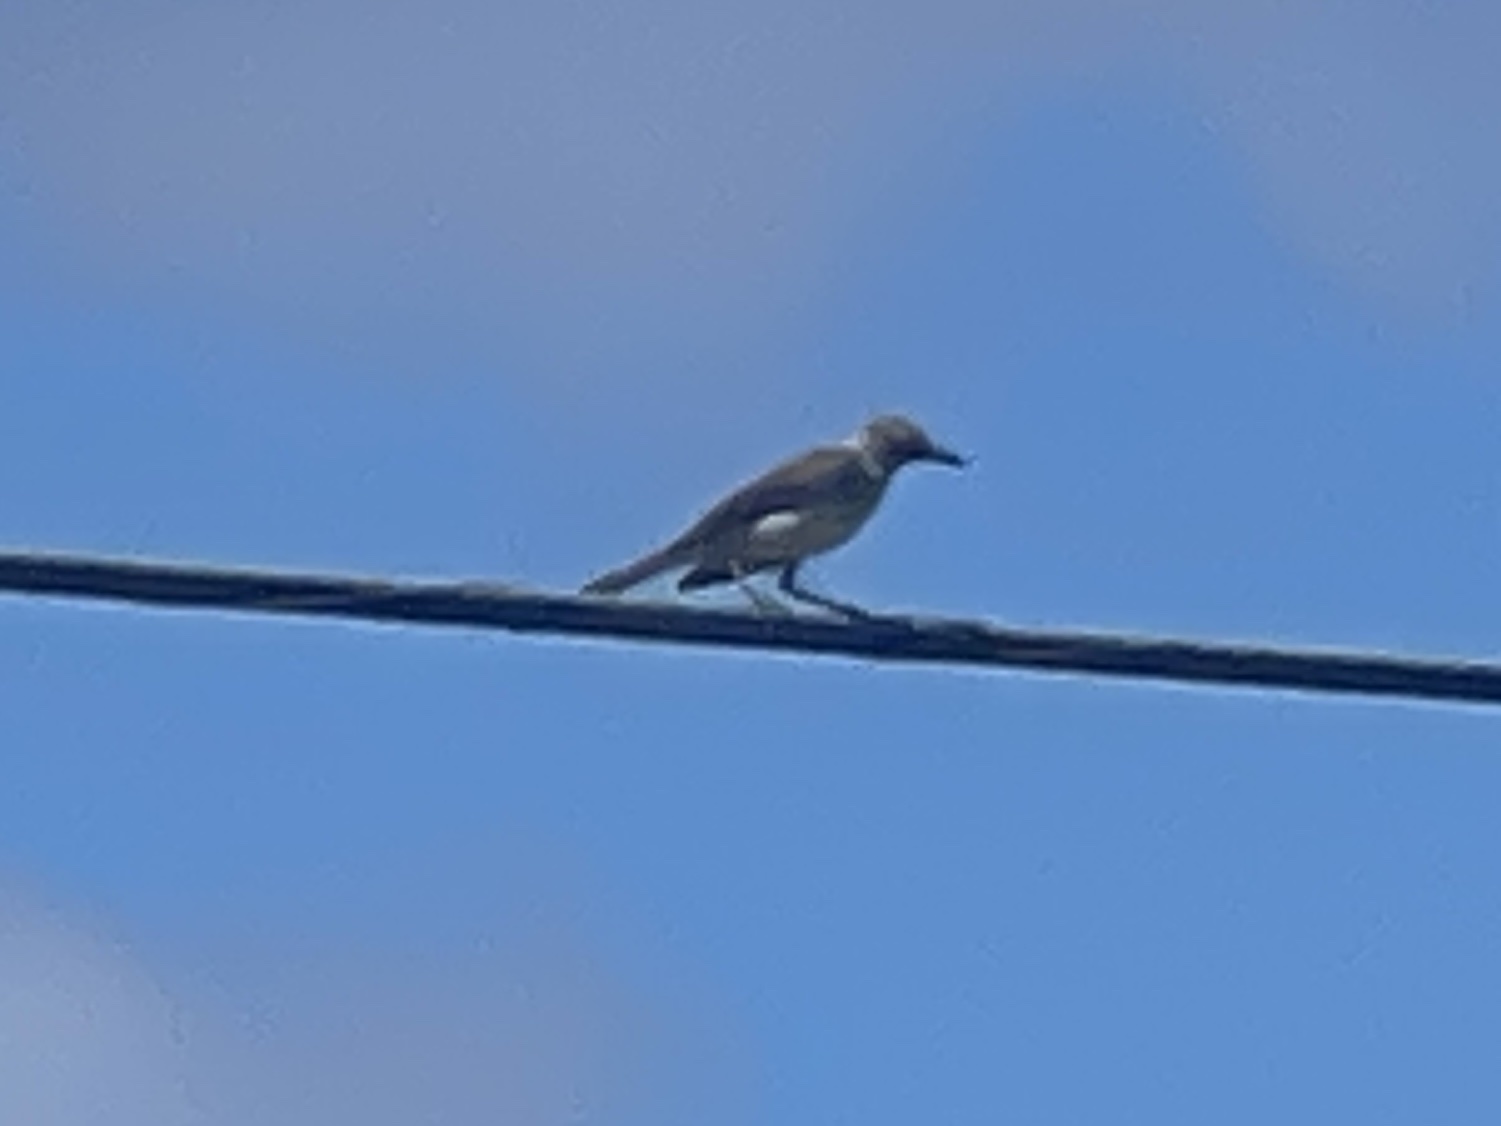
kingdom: Animalia
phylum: Chordata
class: Aves
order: Passeriformes
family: Mimidae
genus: Mimus
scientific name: Mimus polyglottos
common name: Northern mockingbird
